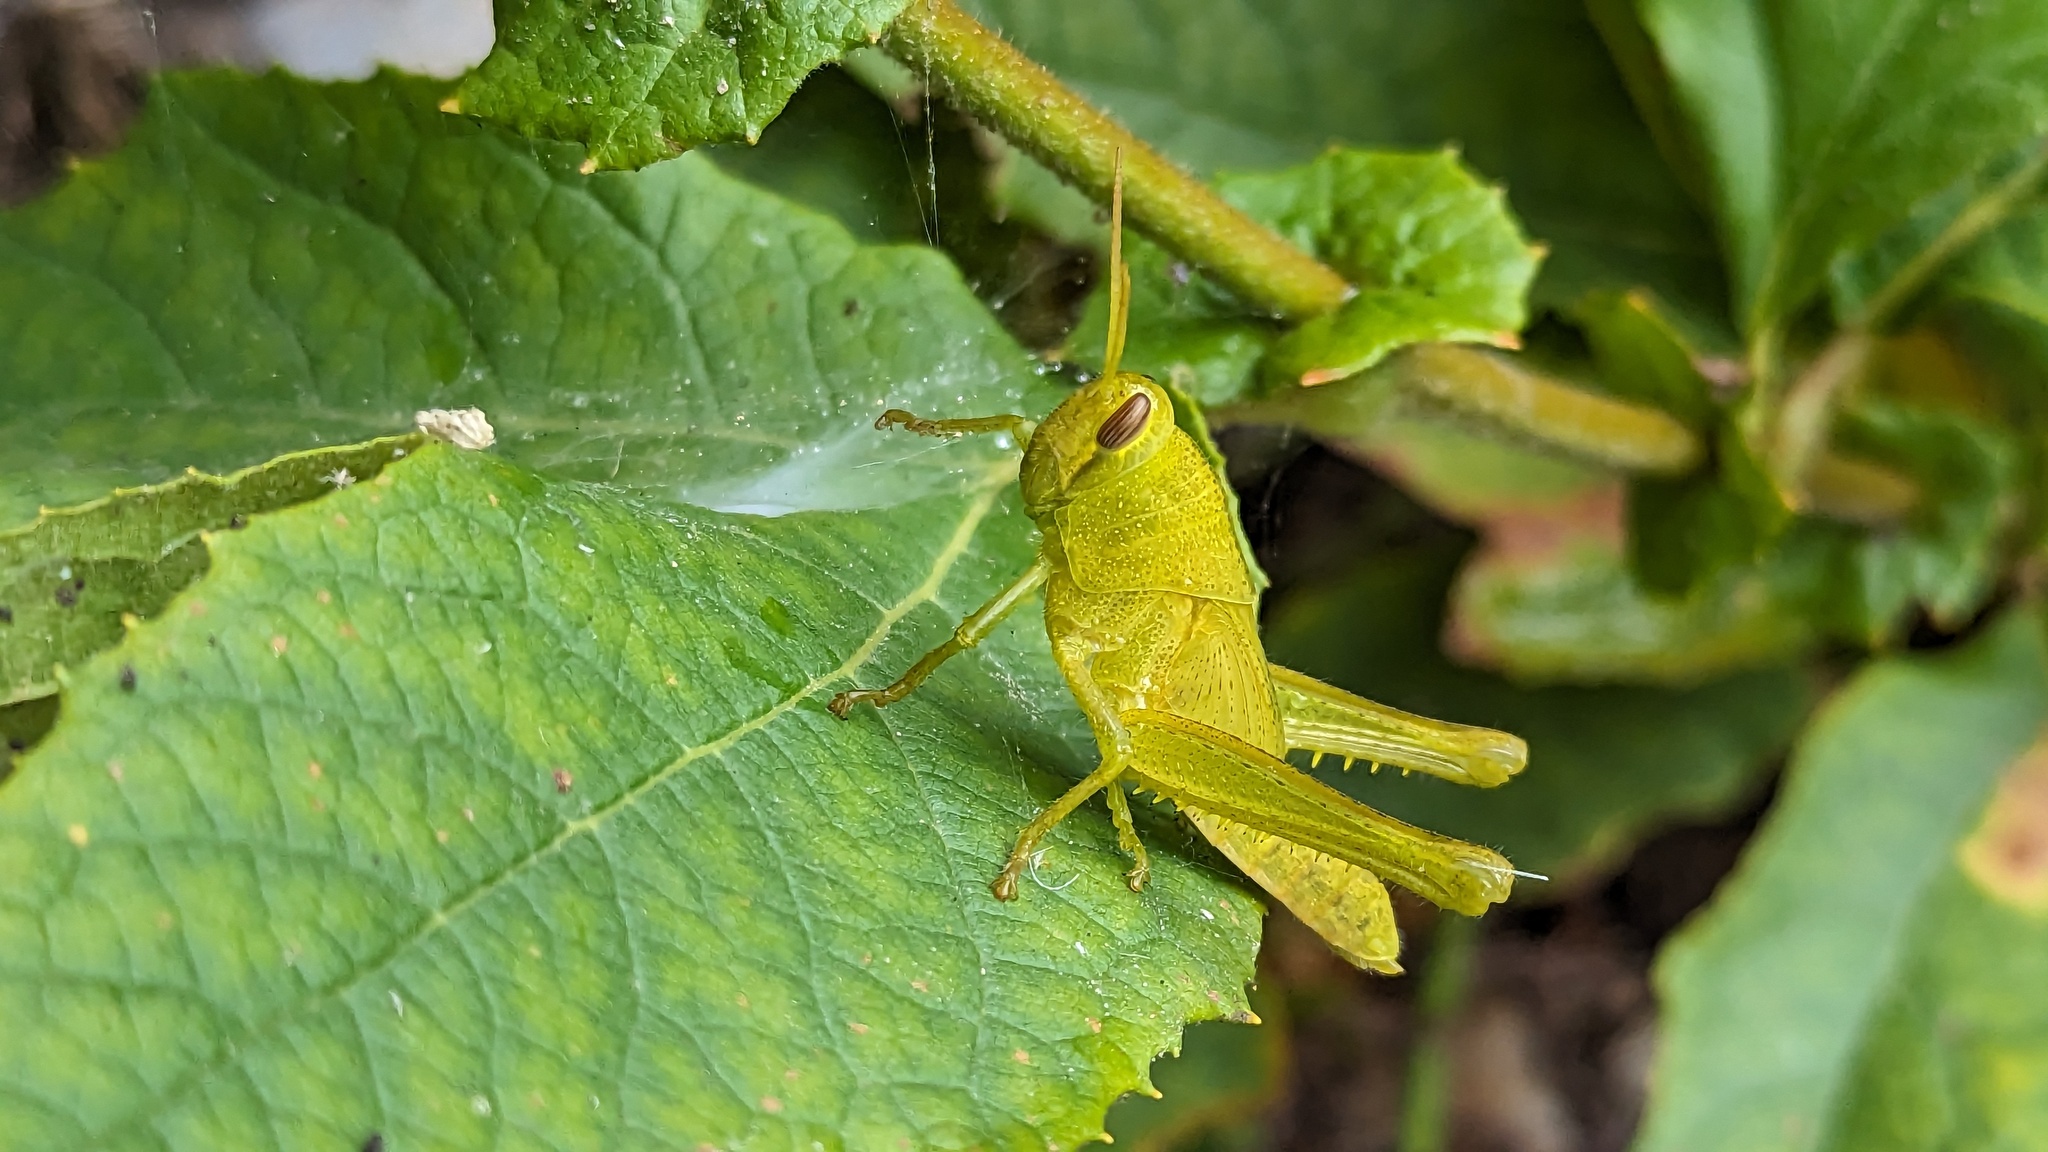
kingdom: Animalia
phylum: Arthropoda
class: Insecta
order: Orthoptera
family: Acrididae
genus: Schistocerca
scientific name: Schistocerca nitens
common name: Vagrant grasshopper
